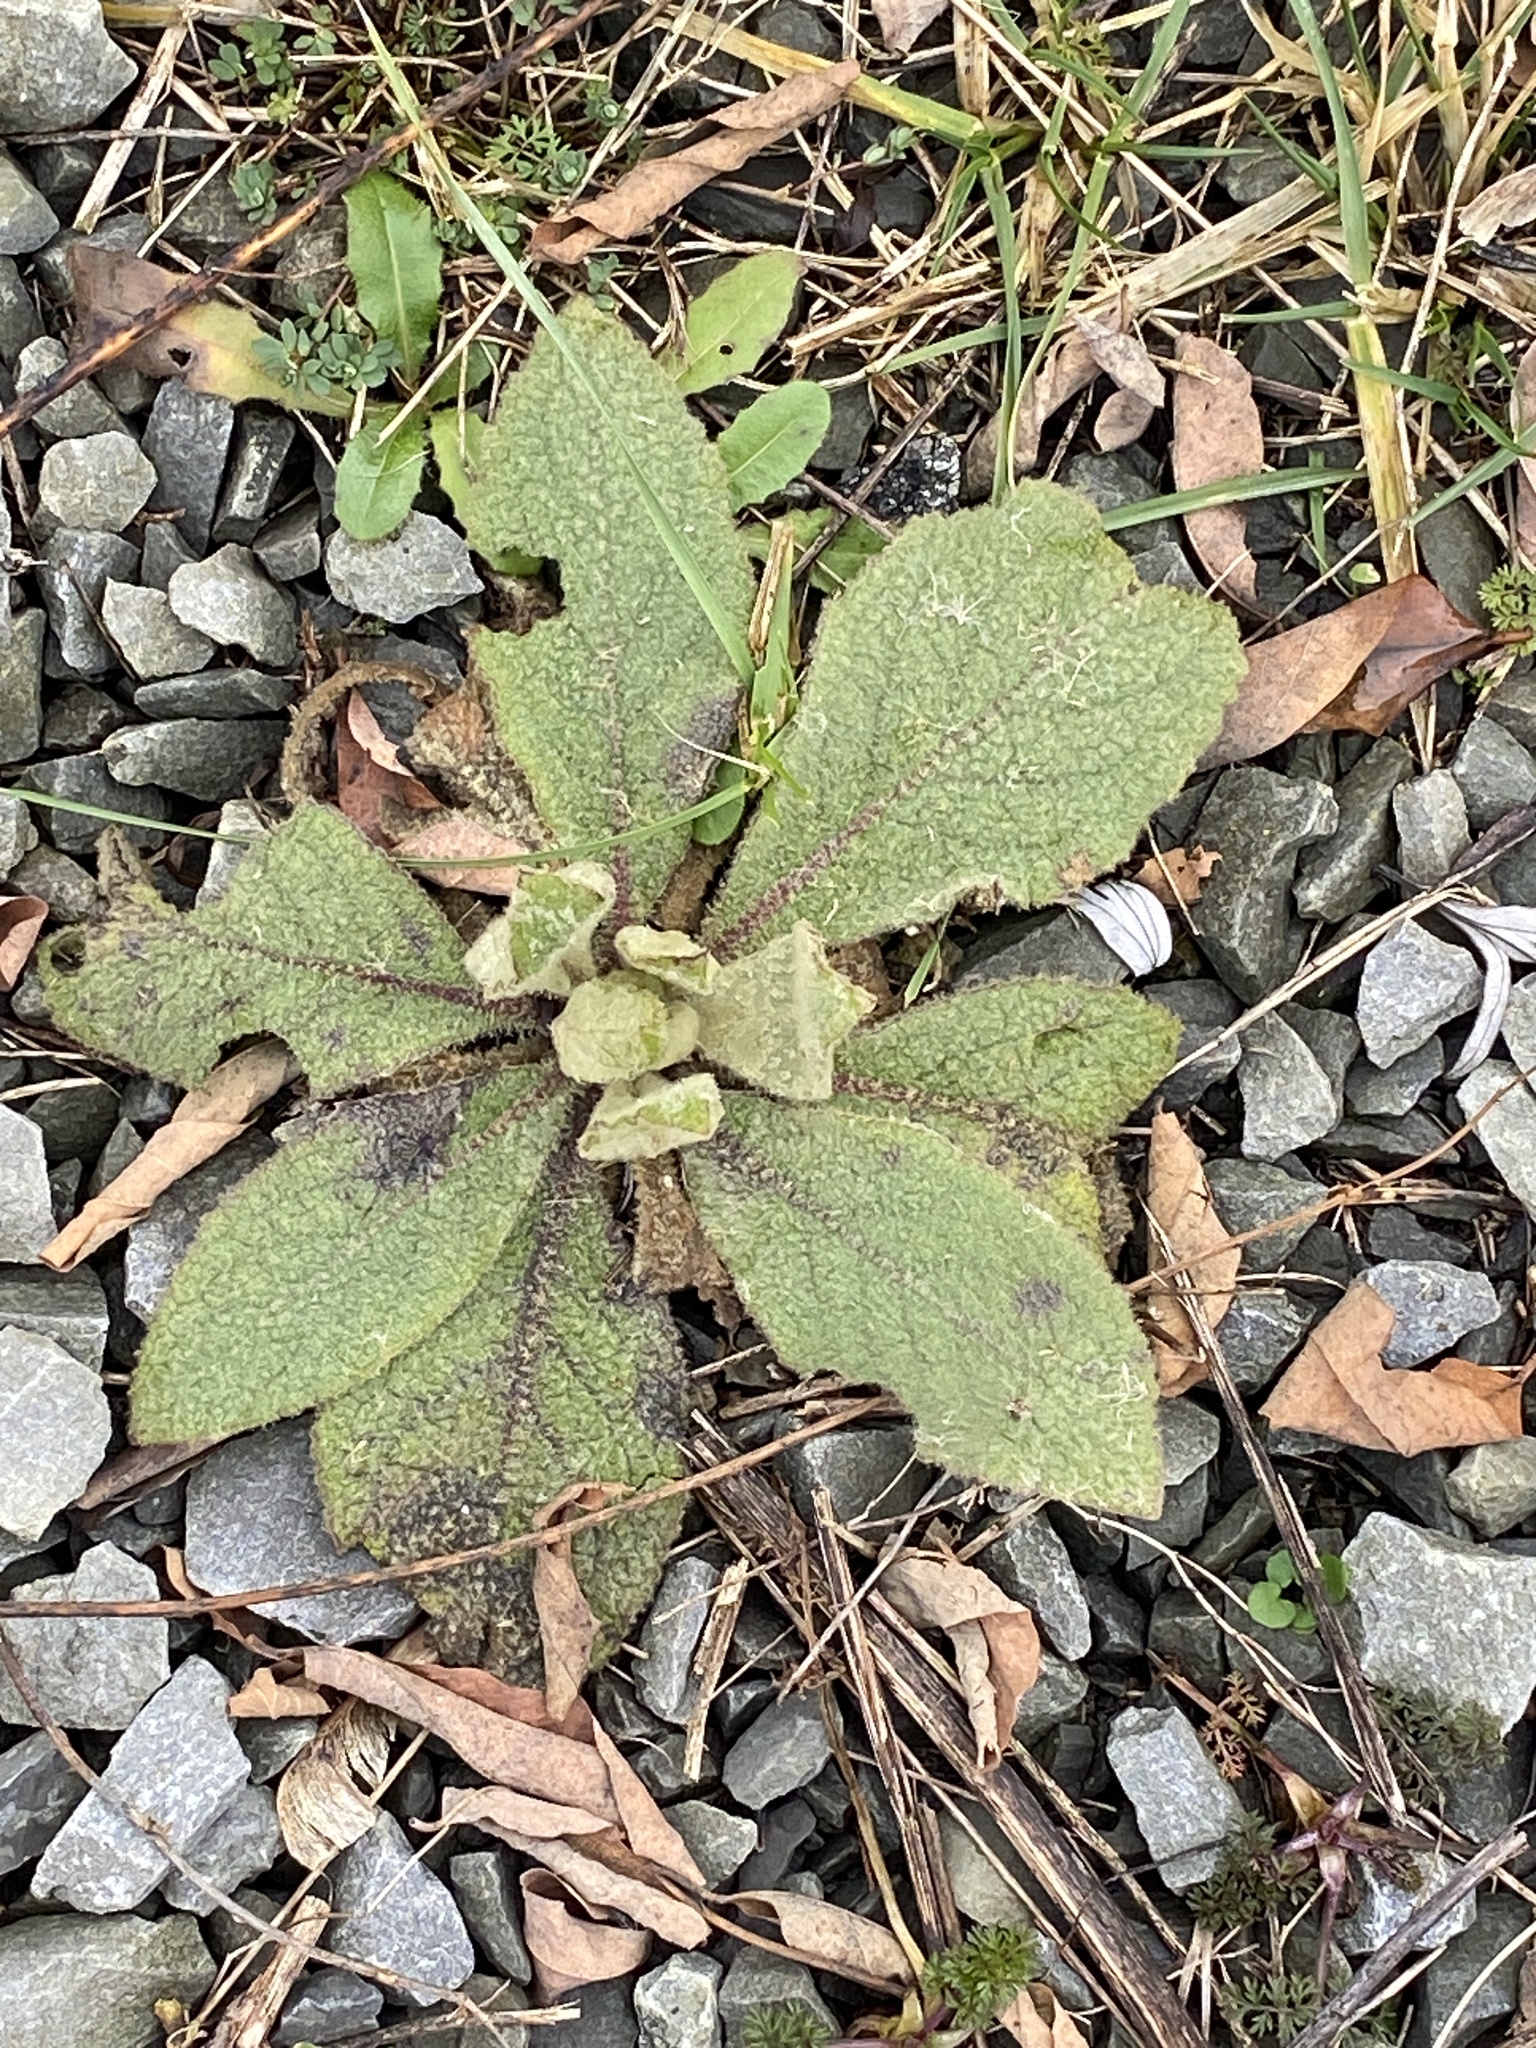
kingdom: Plantae
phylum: Tracheophyta
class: Magnoliopsida
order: Lamiales
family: Scrophulariaceae
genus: Verbascum
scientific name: Verbascum thapsus
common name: Common mullein
